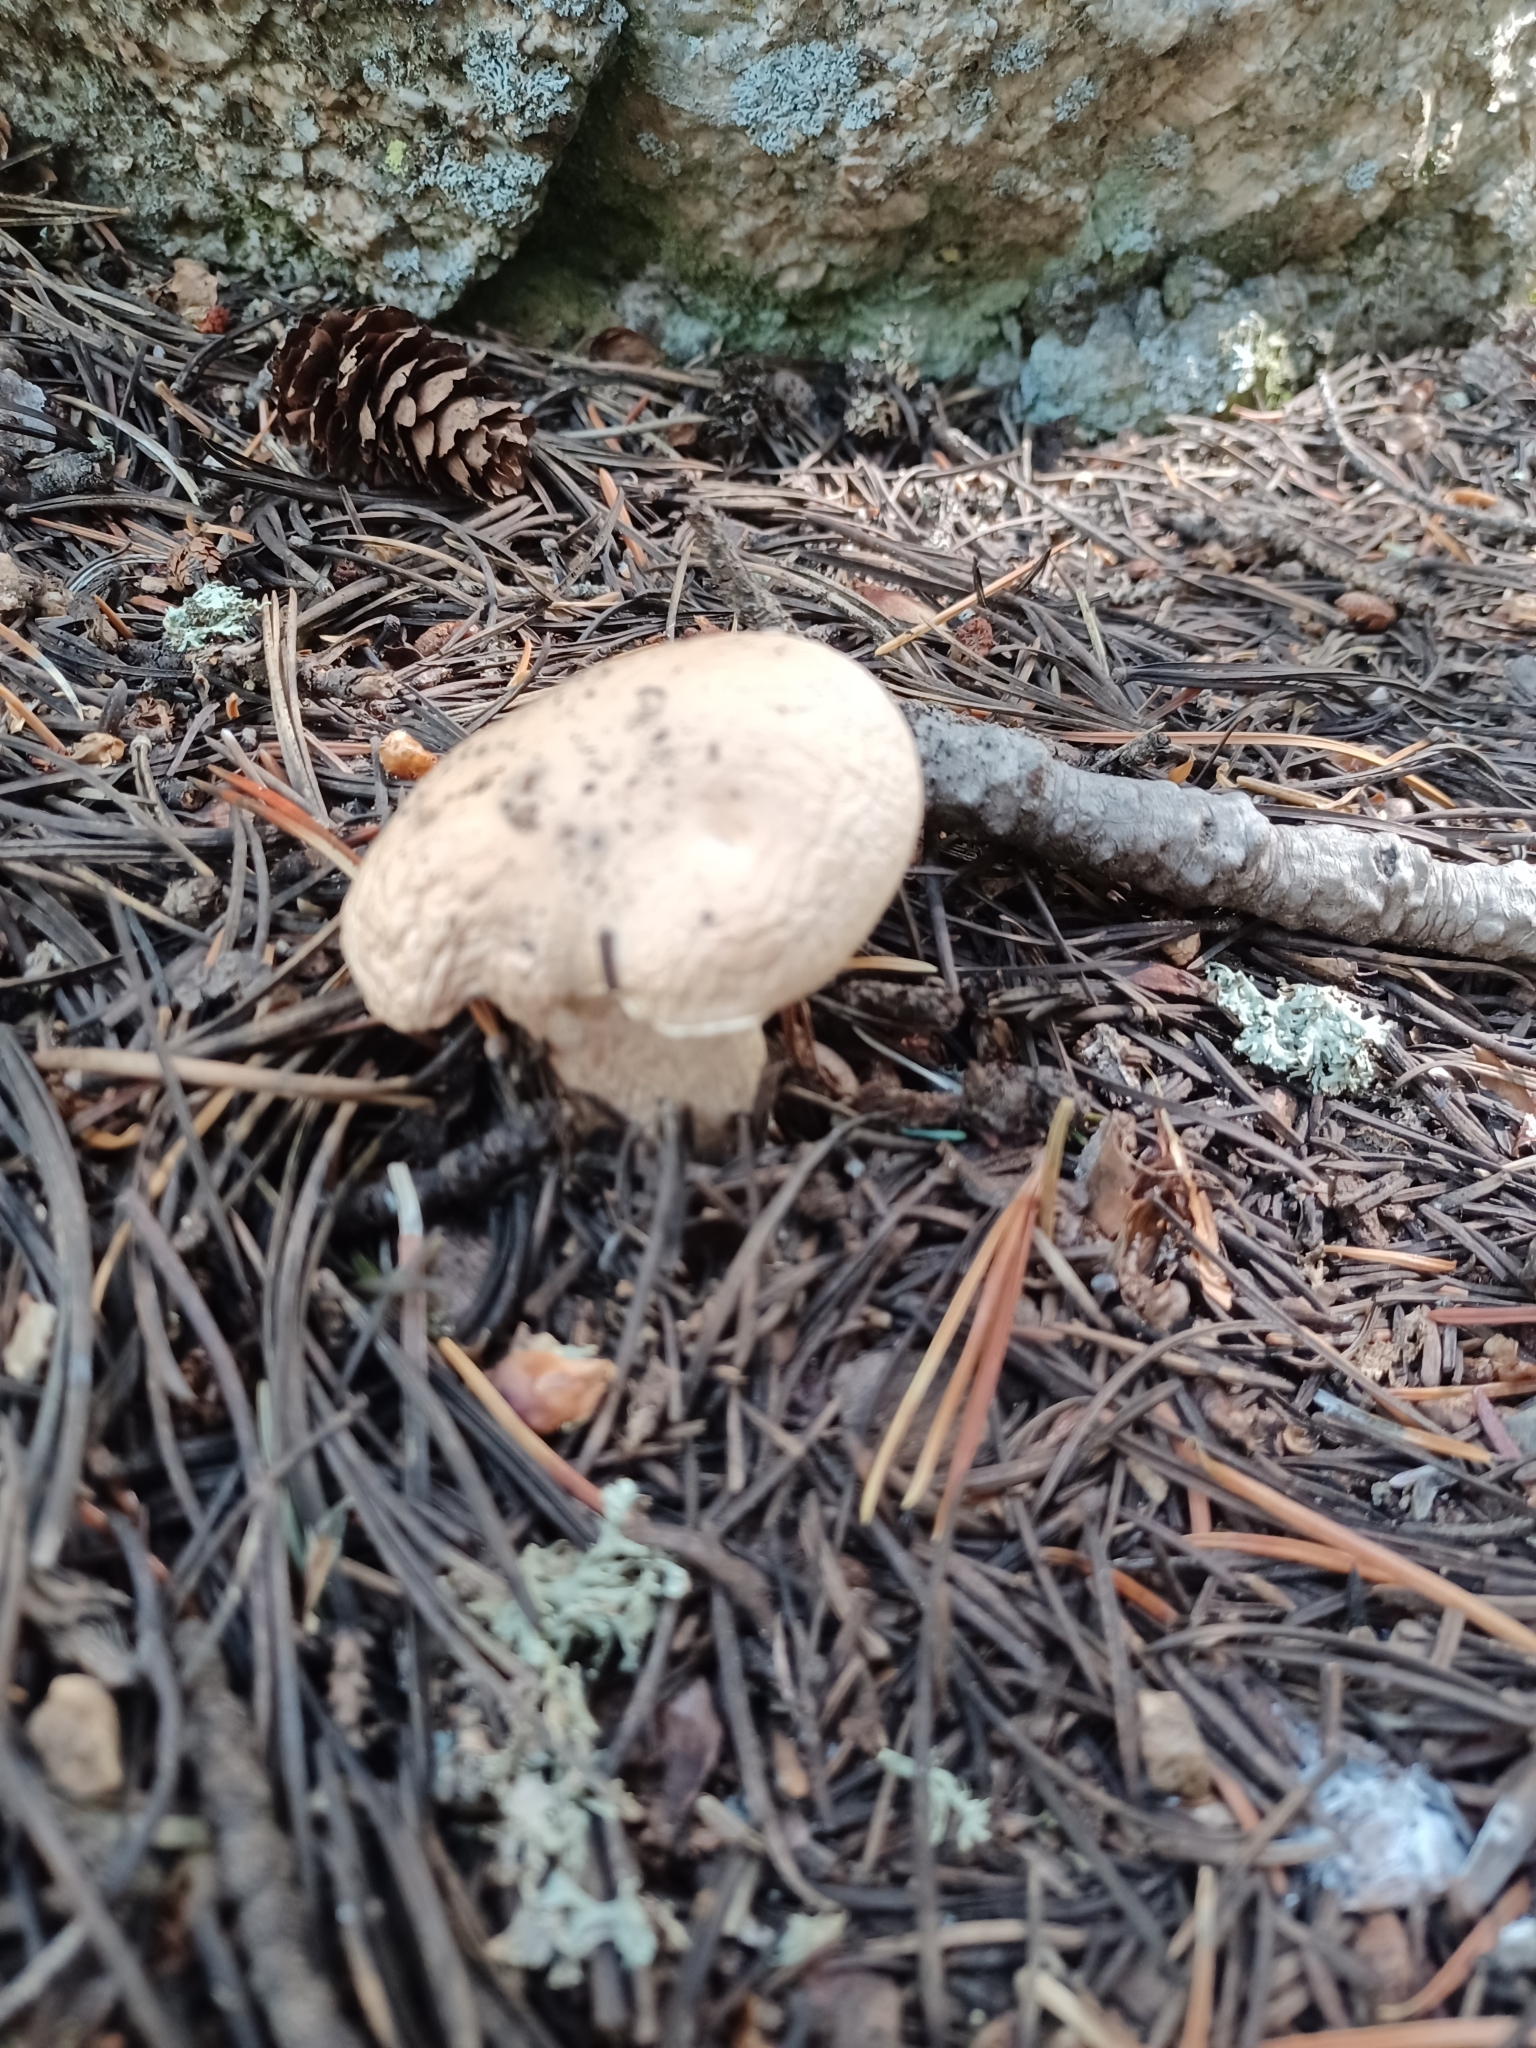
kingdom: Fungi
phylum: Basidiomycota
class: Agaricomycetes
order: Agaricales
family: Hygrophoraceae
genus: Hygrophorus
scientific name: Hygrophorus pudorinus
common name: Rosy woodwax
